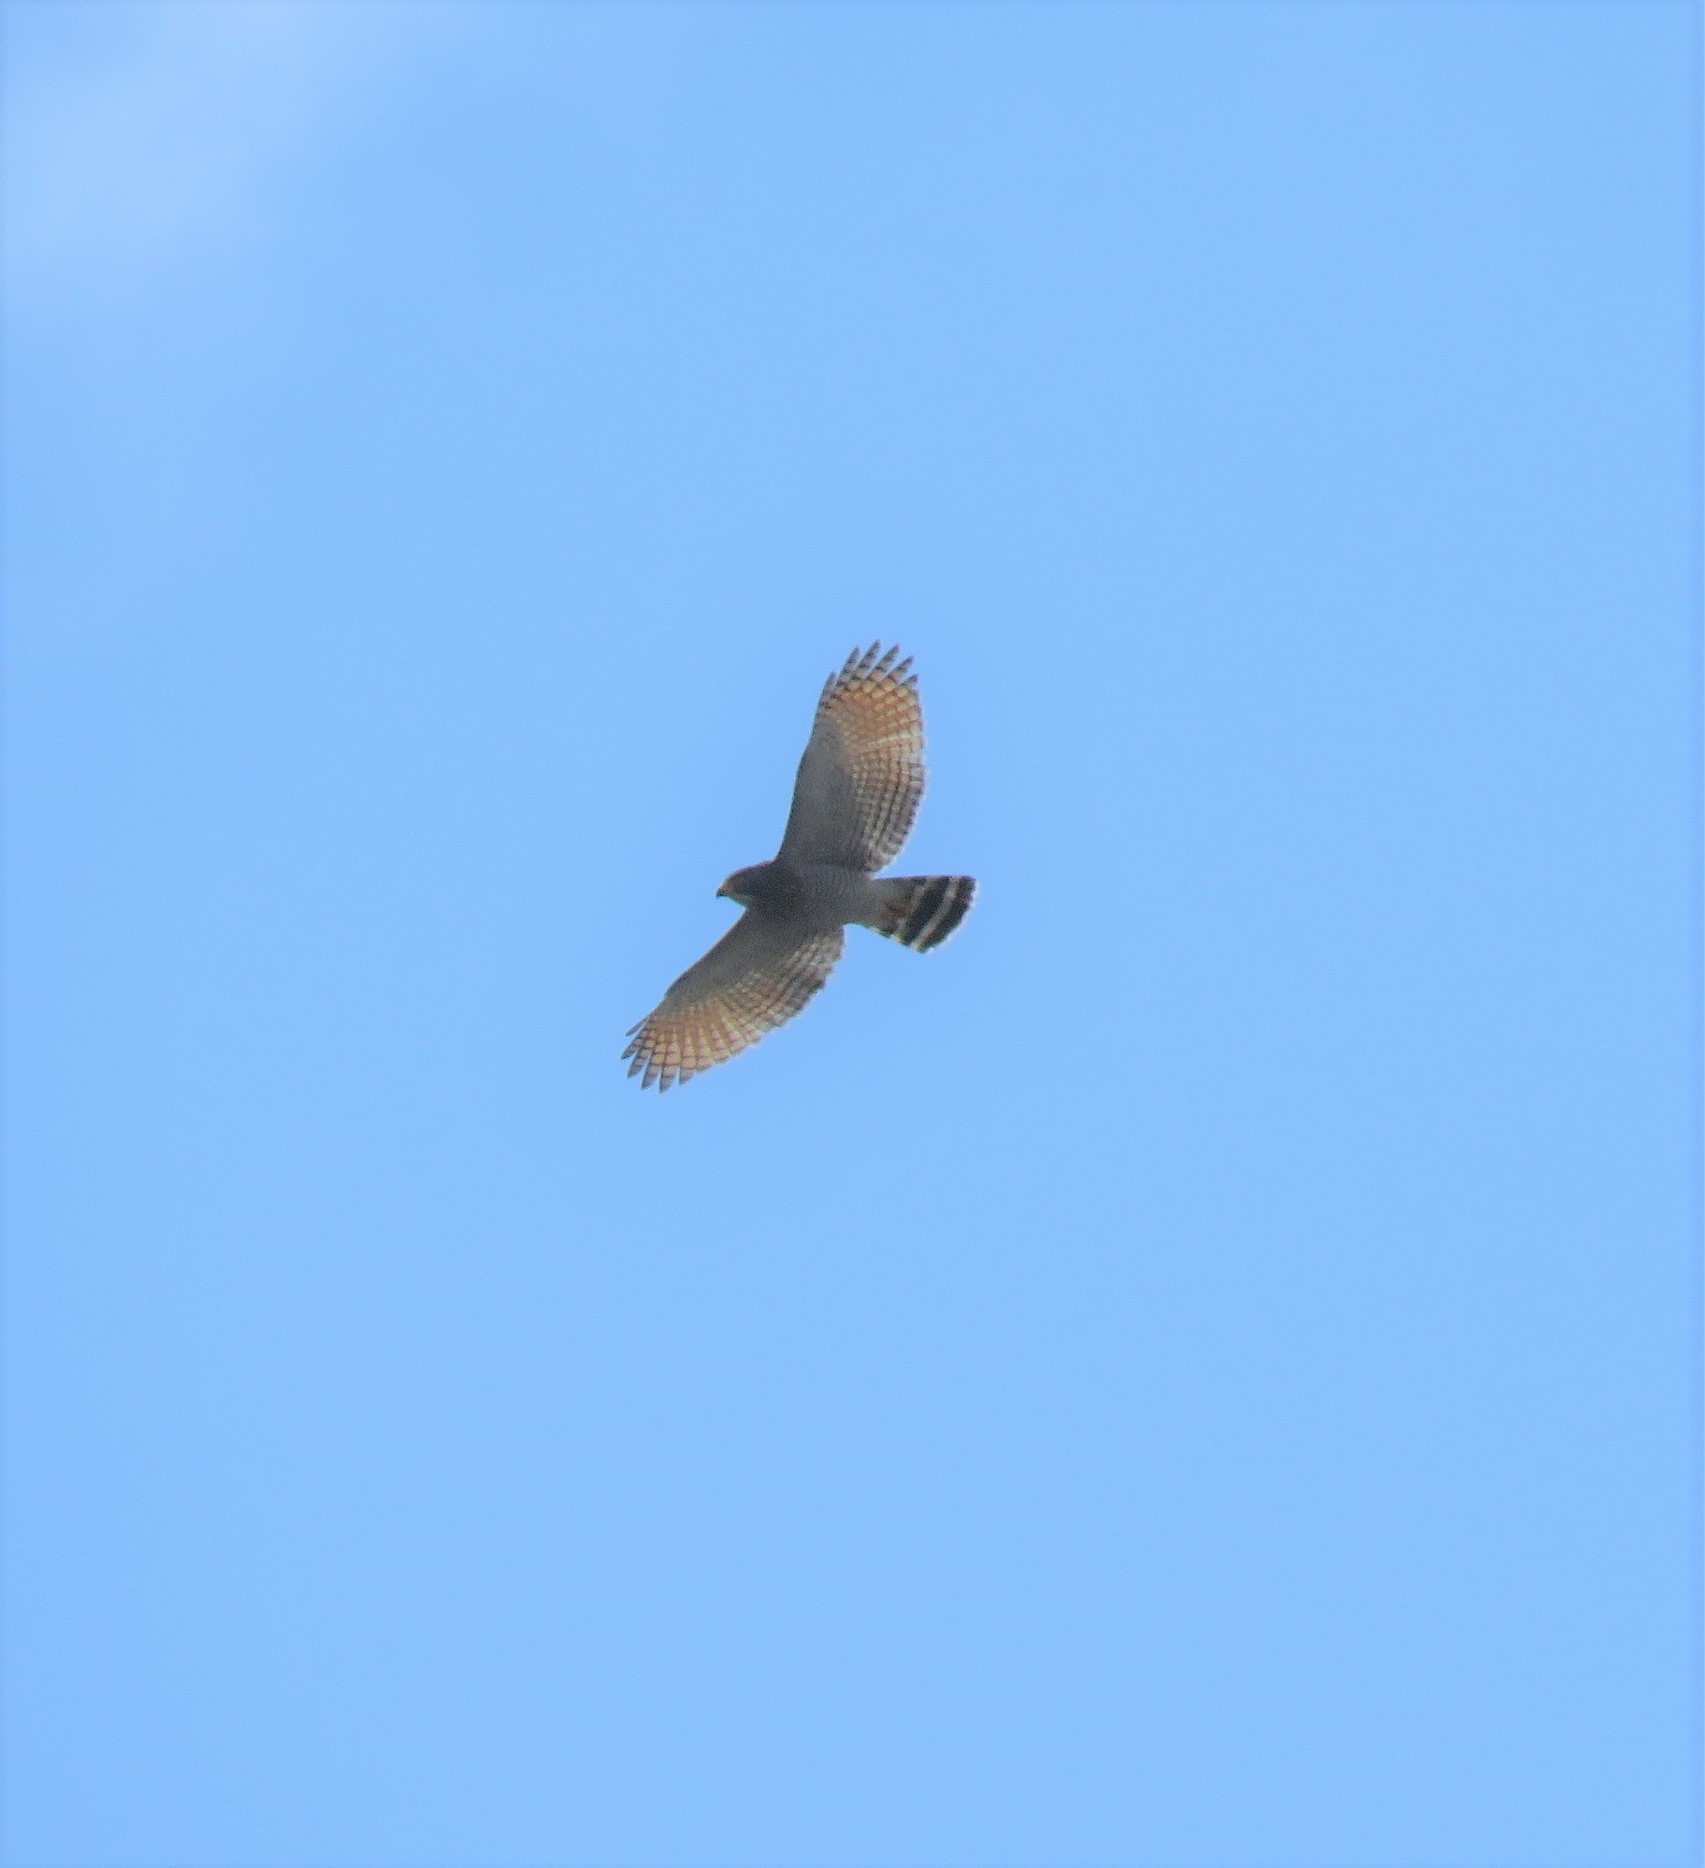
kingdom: Animalia
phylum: Chordata
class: Aves
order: Accipitriformes
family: Accipitridae
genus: Rupornis
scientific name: Rupornis magnirostris
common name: Roadside hawk
